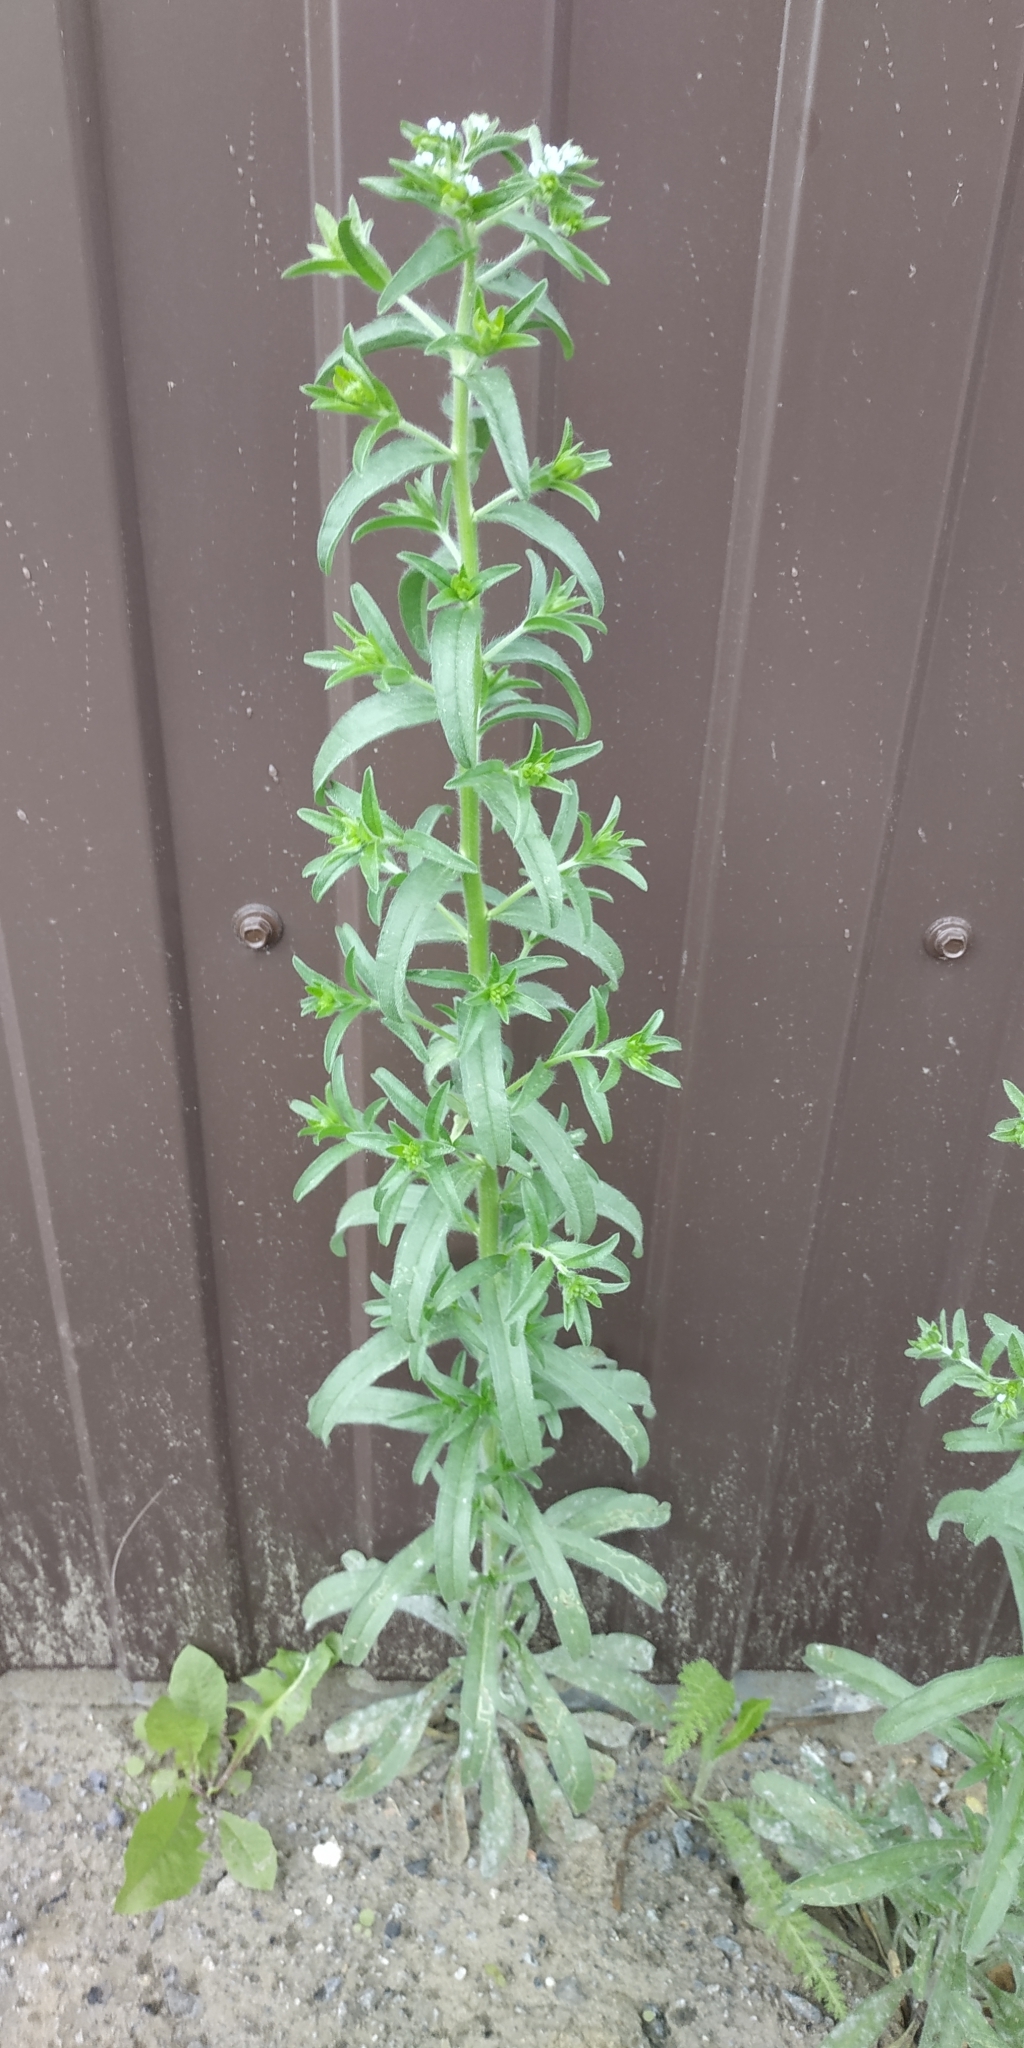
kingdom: Plantae
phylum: Tracheophyta
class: Magnoliopsida
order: Boraginales
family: Boraginaceae
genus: Lappula
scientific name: Lappula squarrosa
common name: European stickseed
